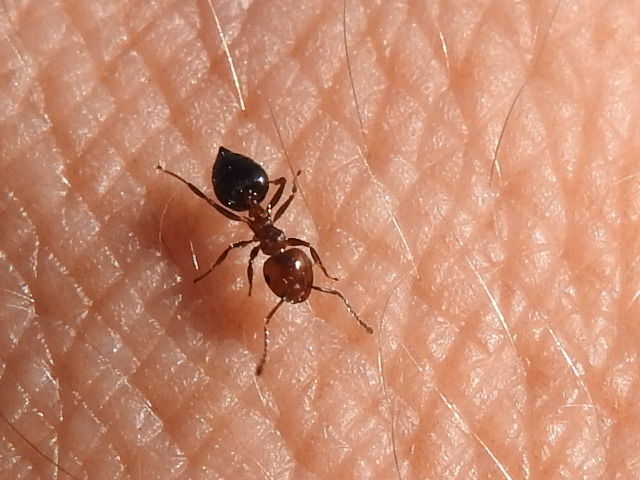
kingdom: Animalia
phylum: Arthropoda
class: Insecta
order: Hymenoptera
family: Formicidae
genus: Crematogaster
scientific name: Crematogaster laeviuscula
